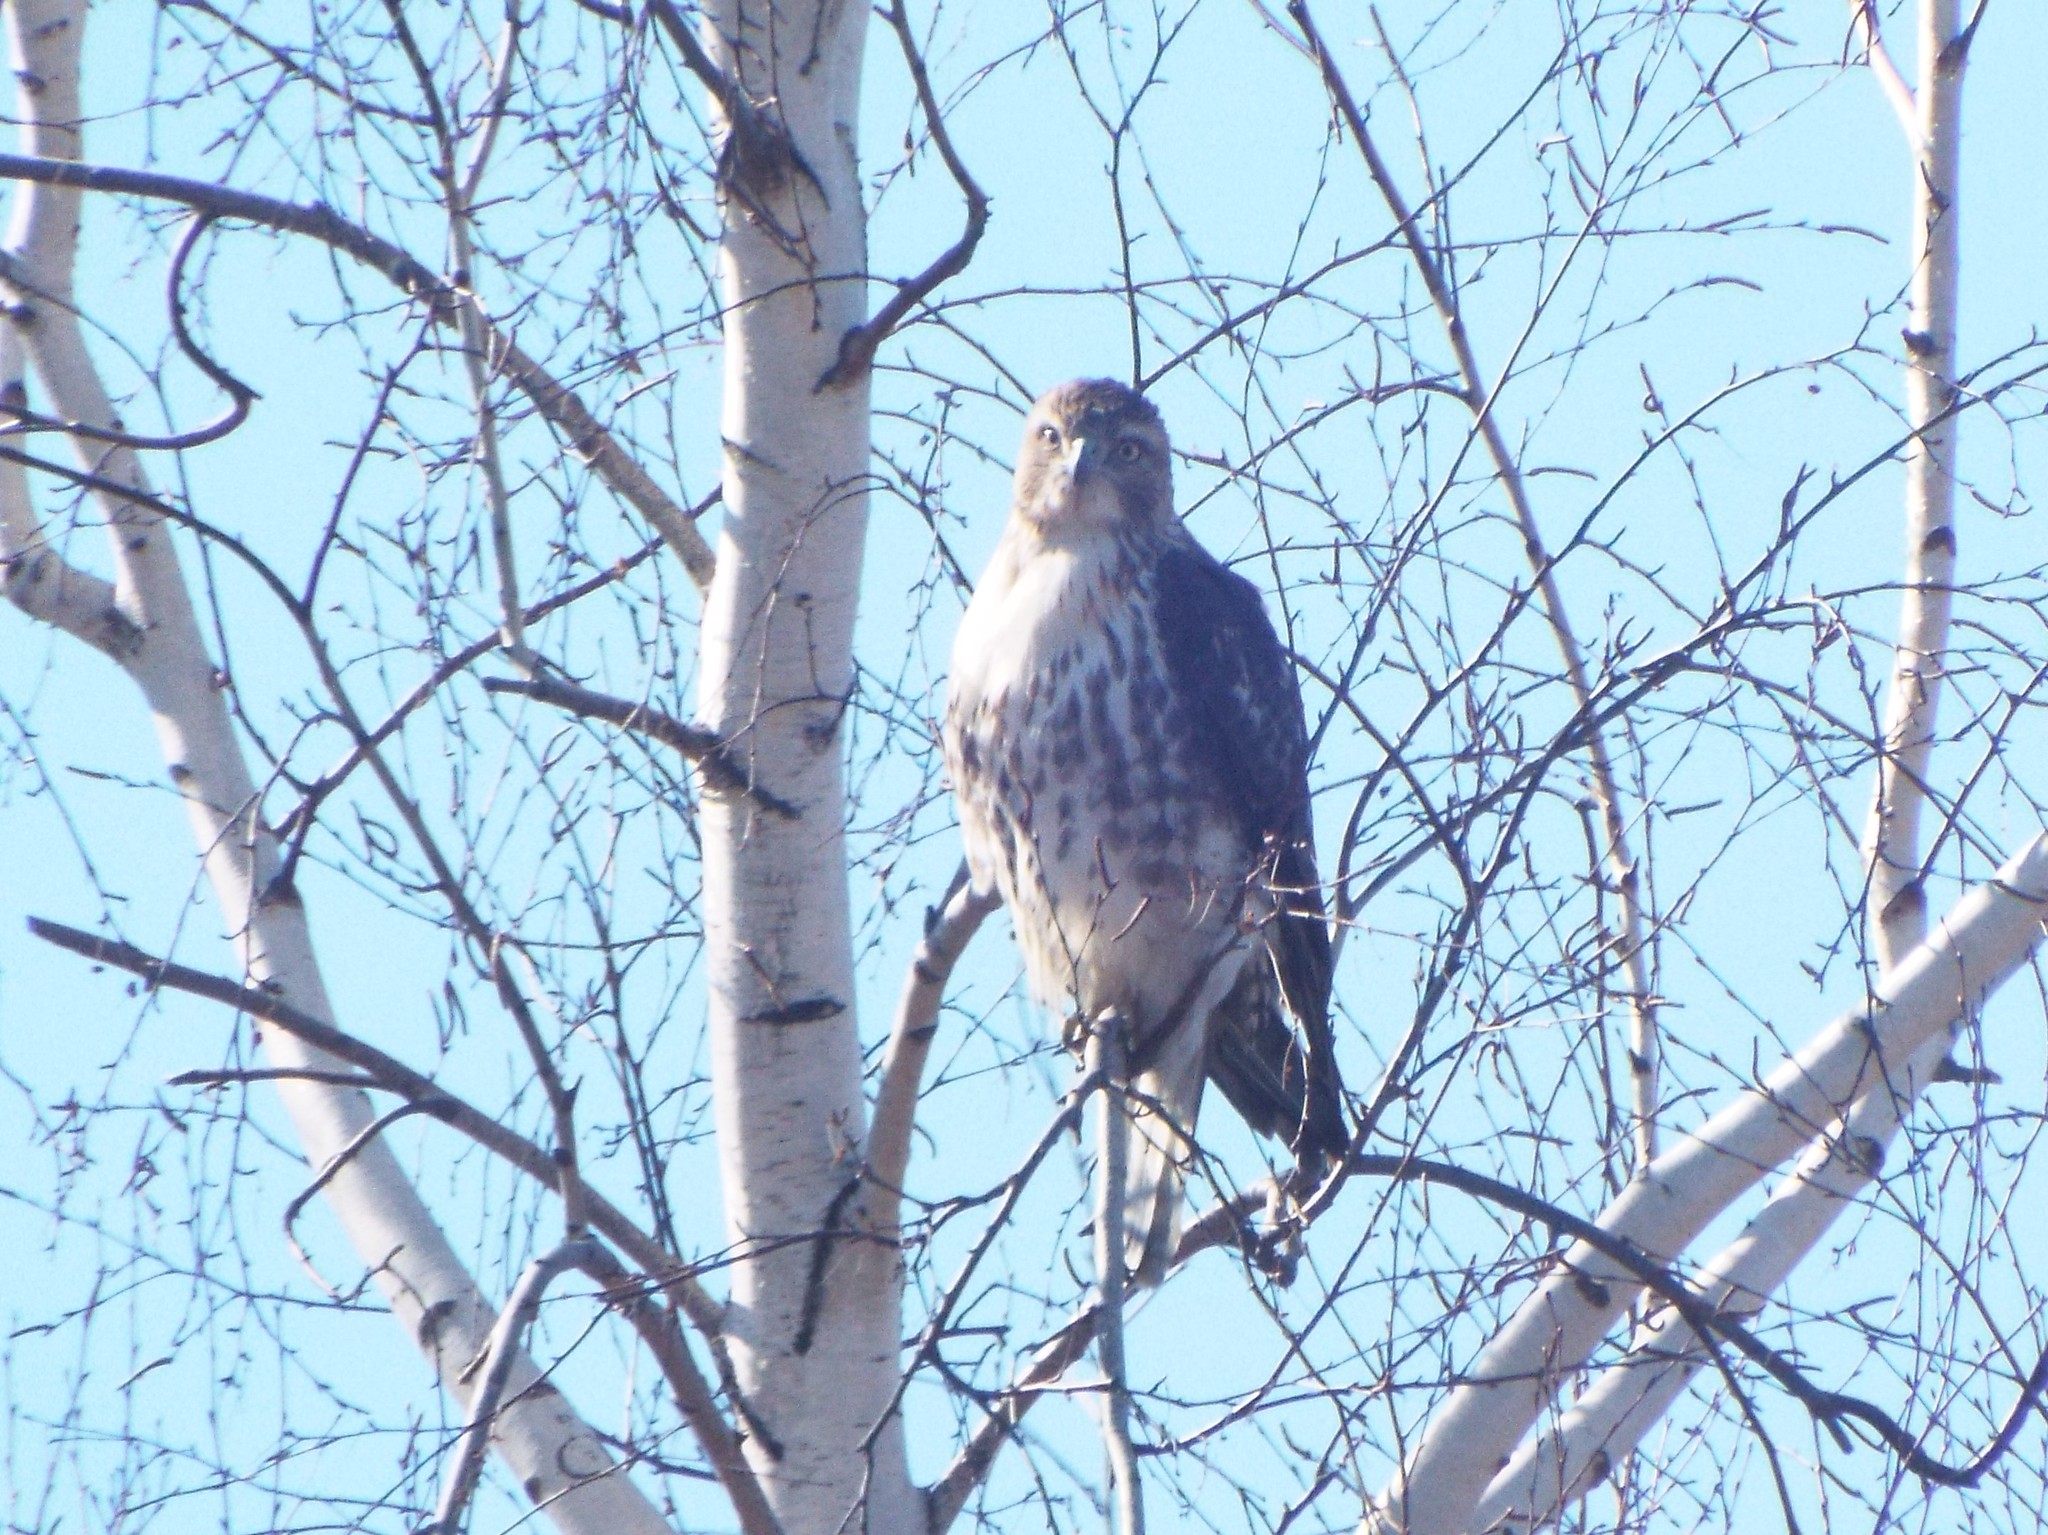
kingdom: Animalia
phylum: Chordata
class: Aves
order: Accipitriformes
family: Accipitridae
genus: Buteo
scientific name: Buteo jamaicensis
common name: Red-tailed hawk
